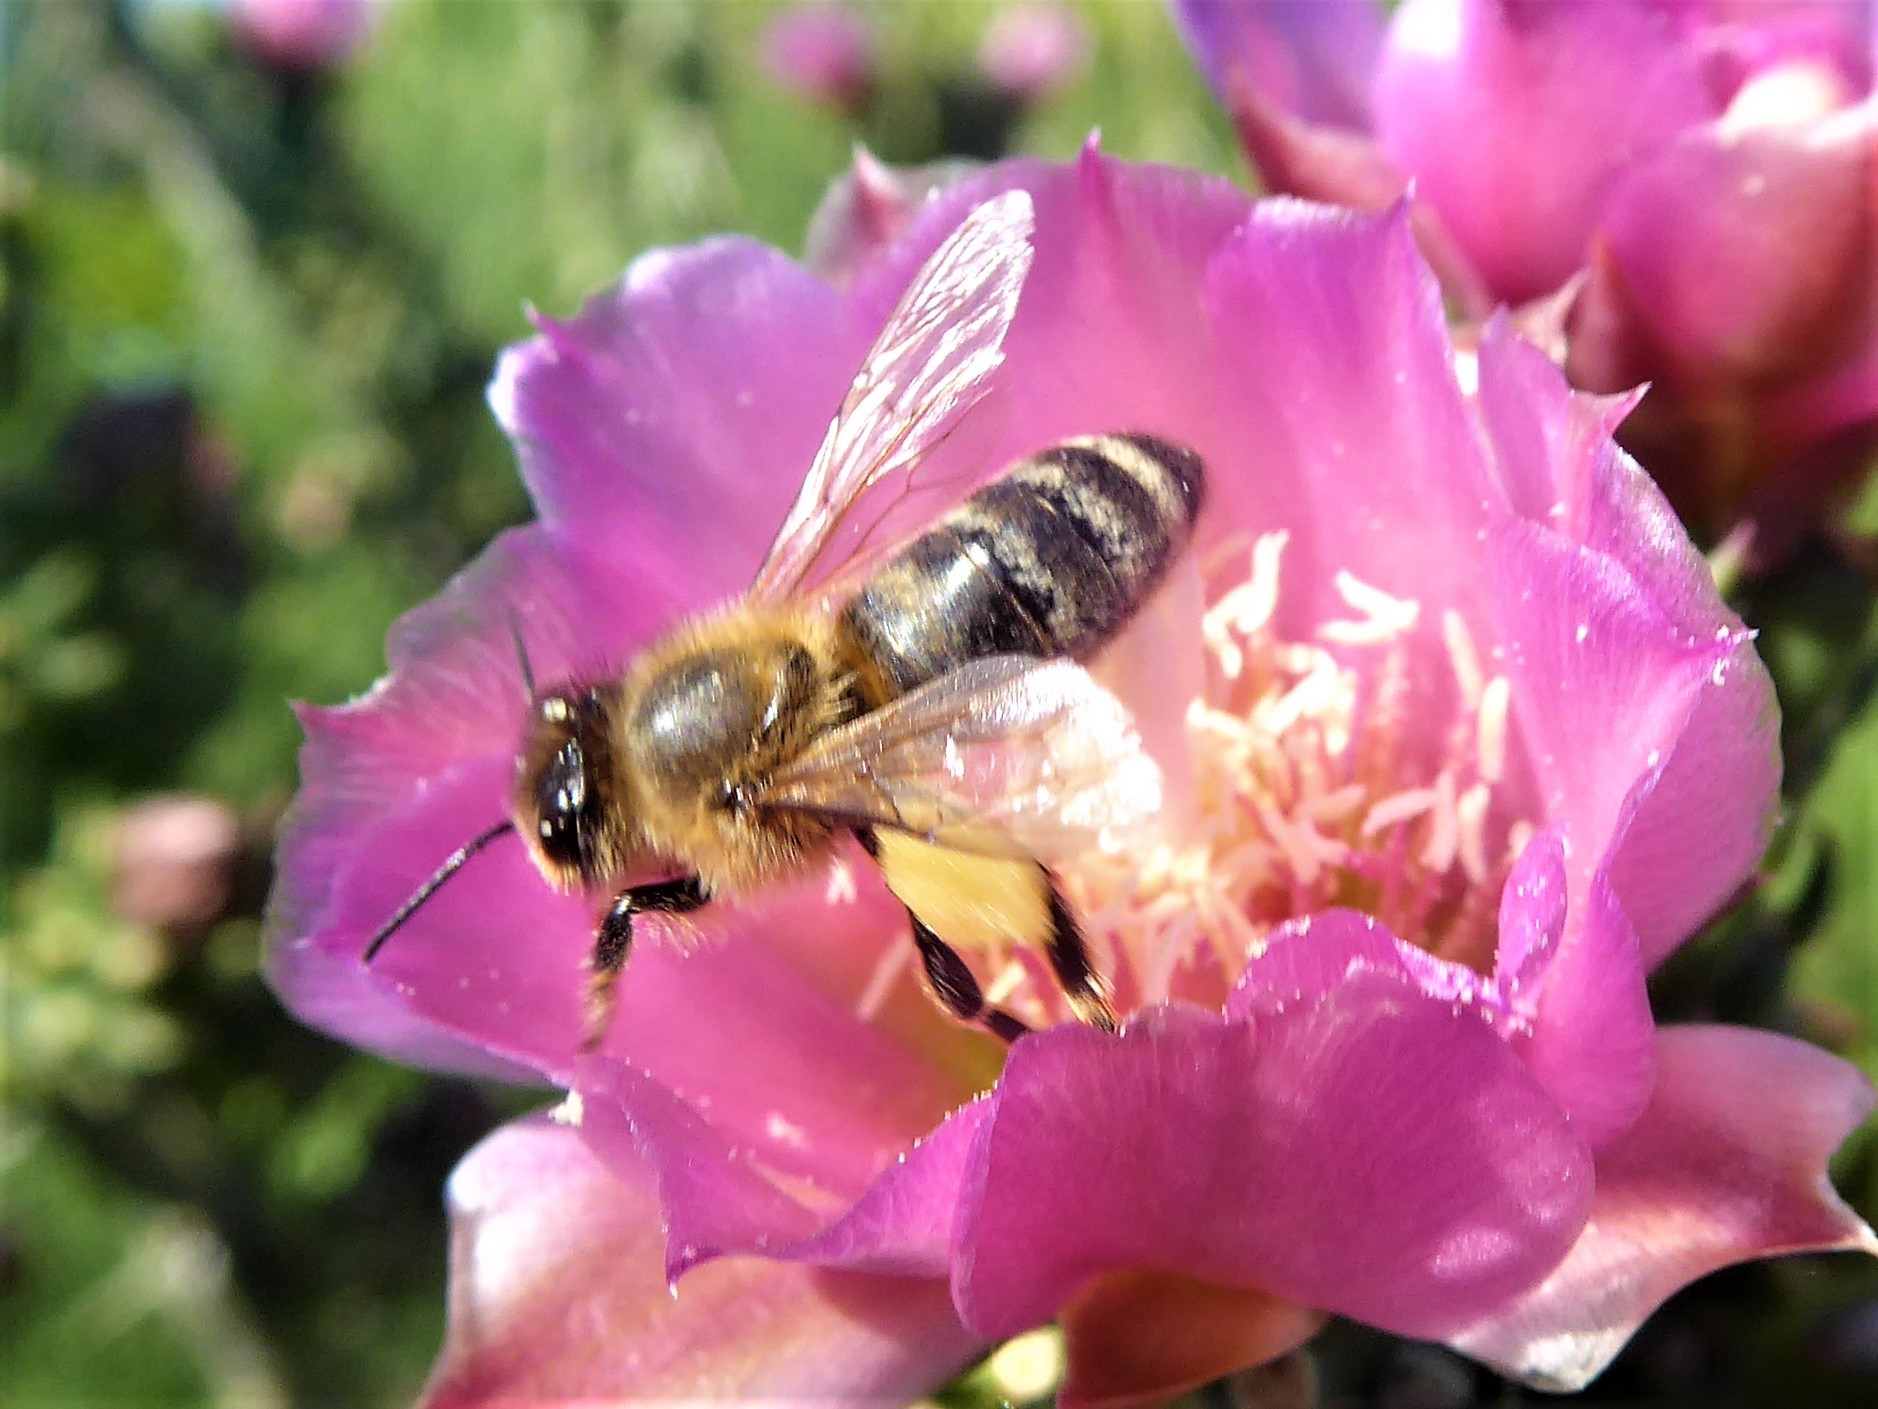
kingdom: Animalia
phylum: Arthropoda
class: Insecta
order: Hymenoptera
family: Apidae
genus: Apis
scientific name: Apis mellifera
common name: Honey bee
